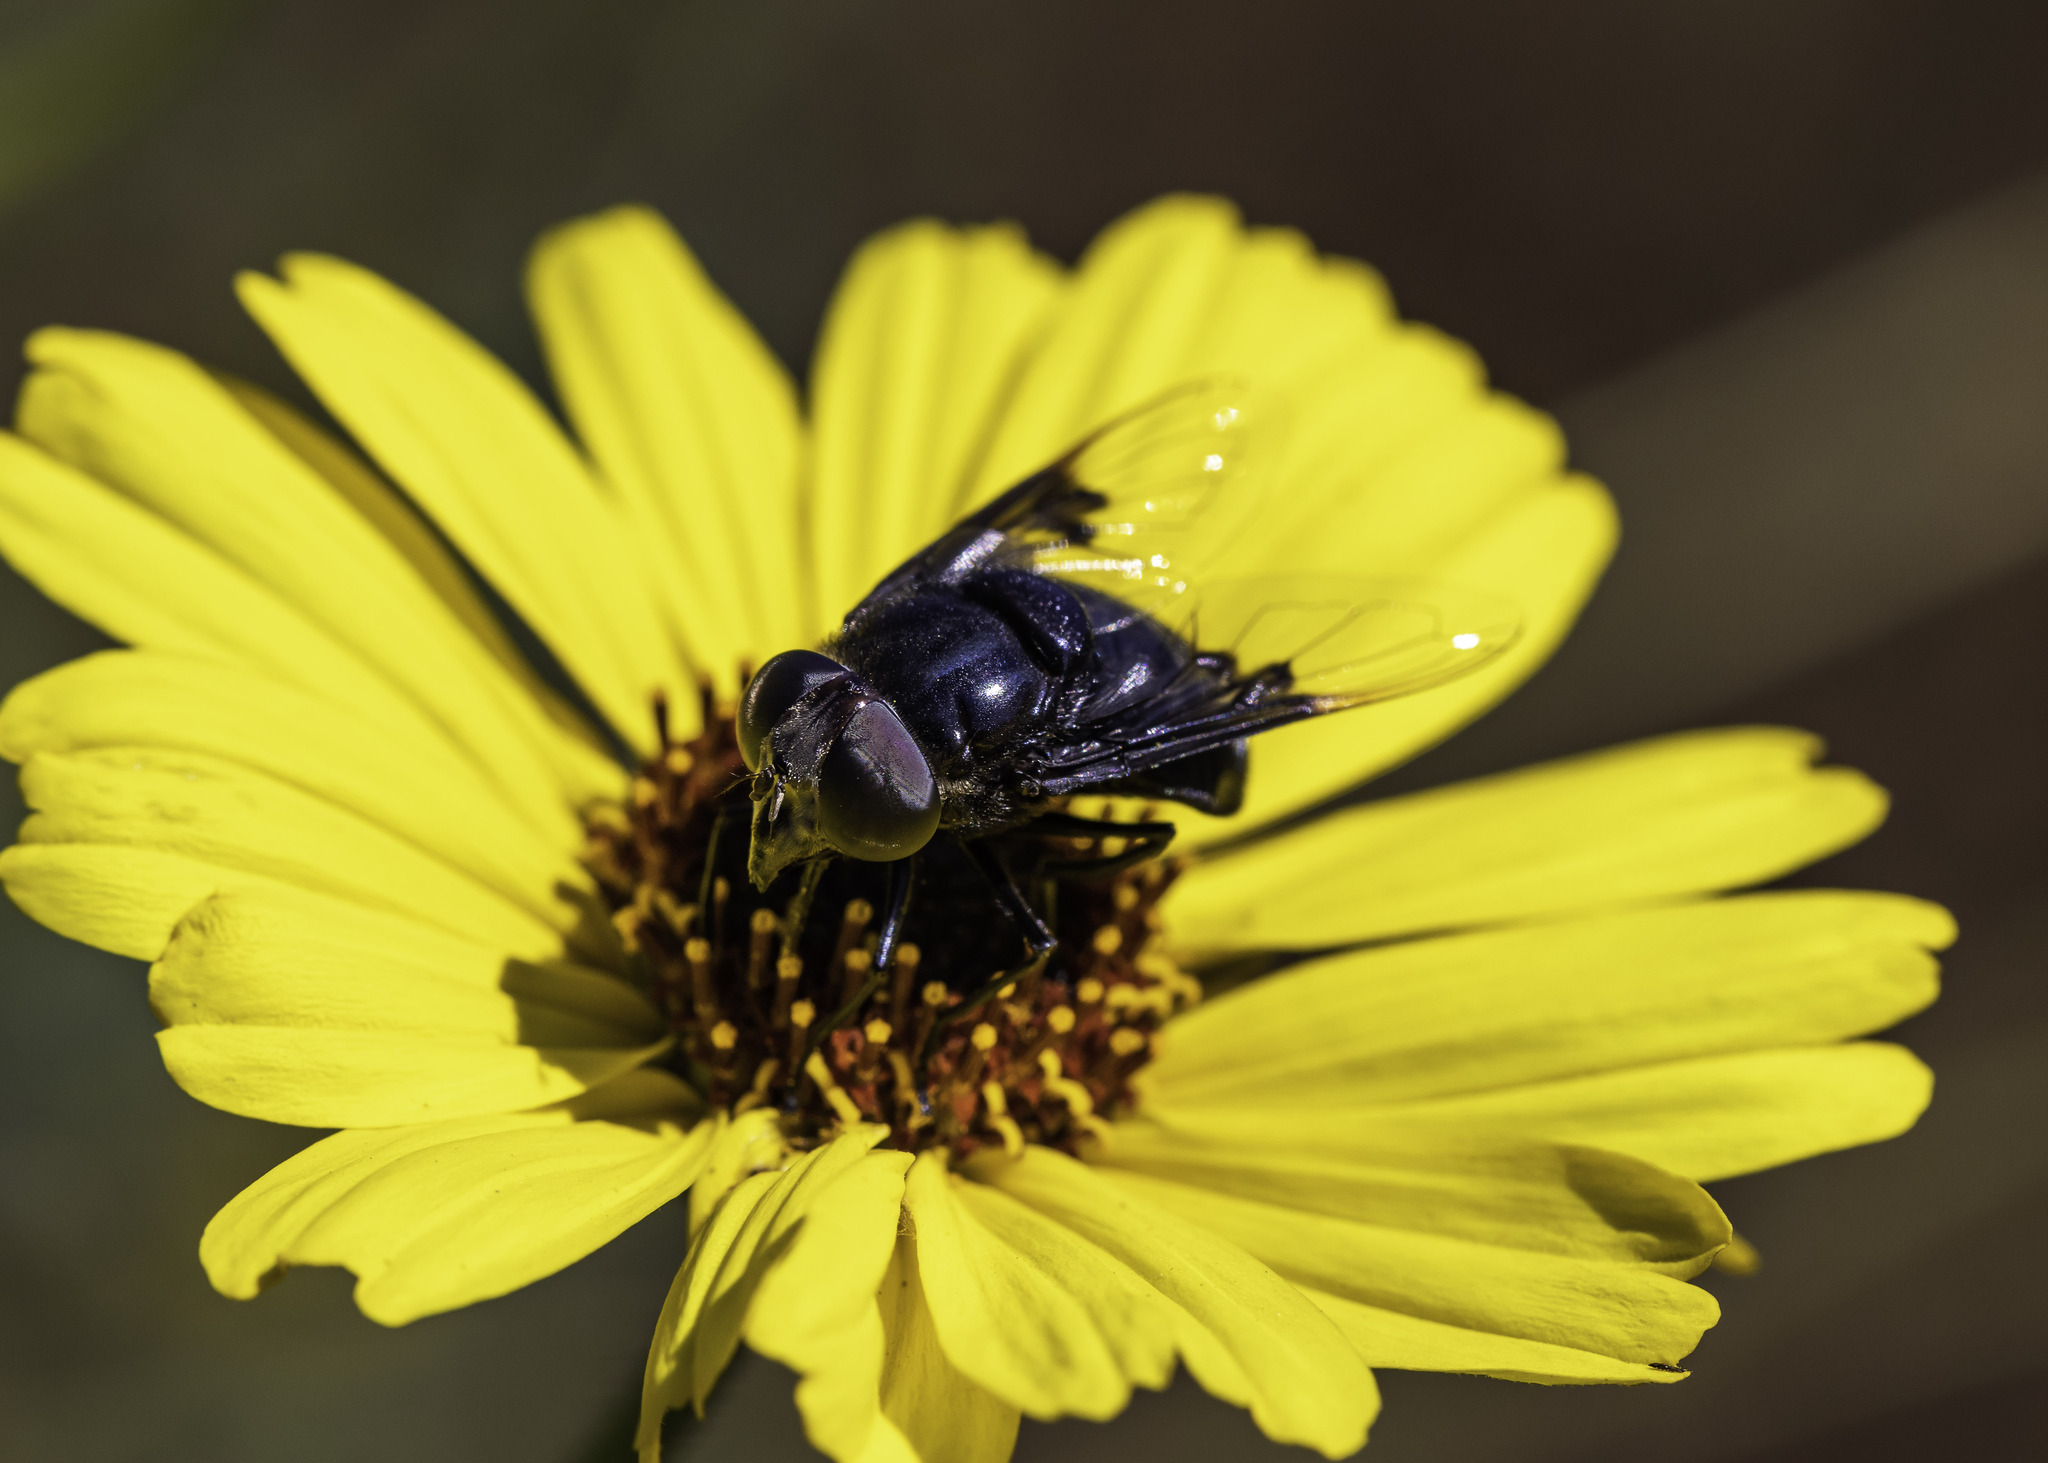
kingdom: Animalia
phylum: Arthropoda
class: Insecta
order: Diptera
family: Syrphidae
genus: Copestylum
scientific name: Copestylum mexicanum
